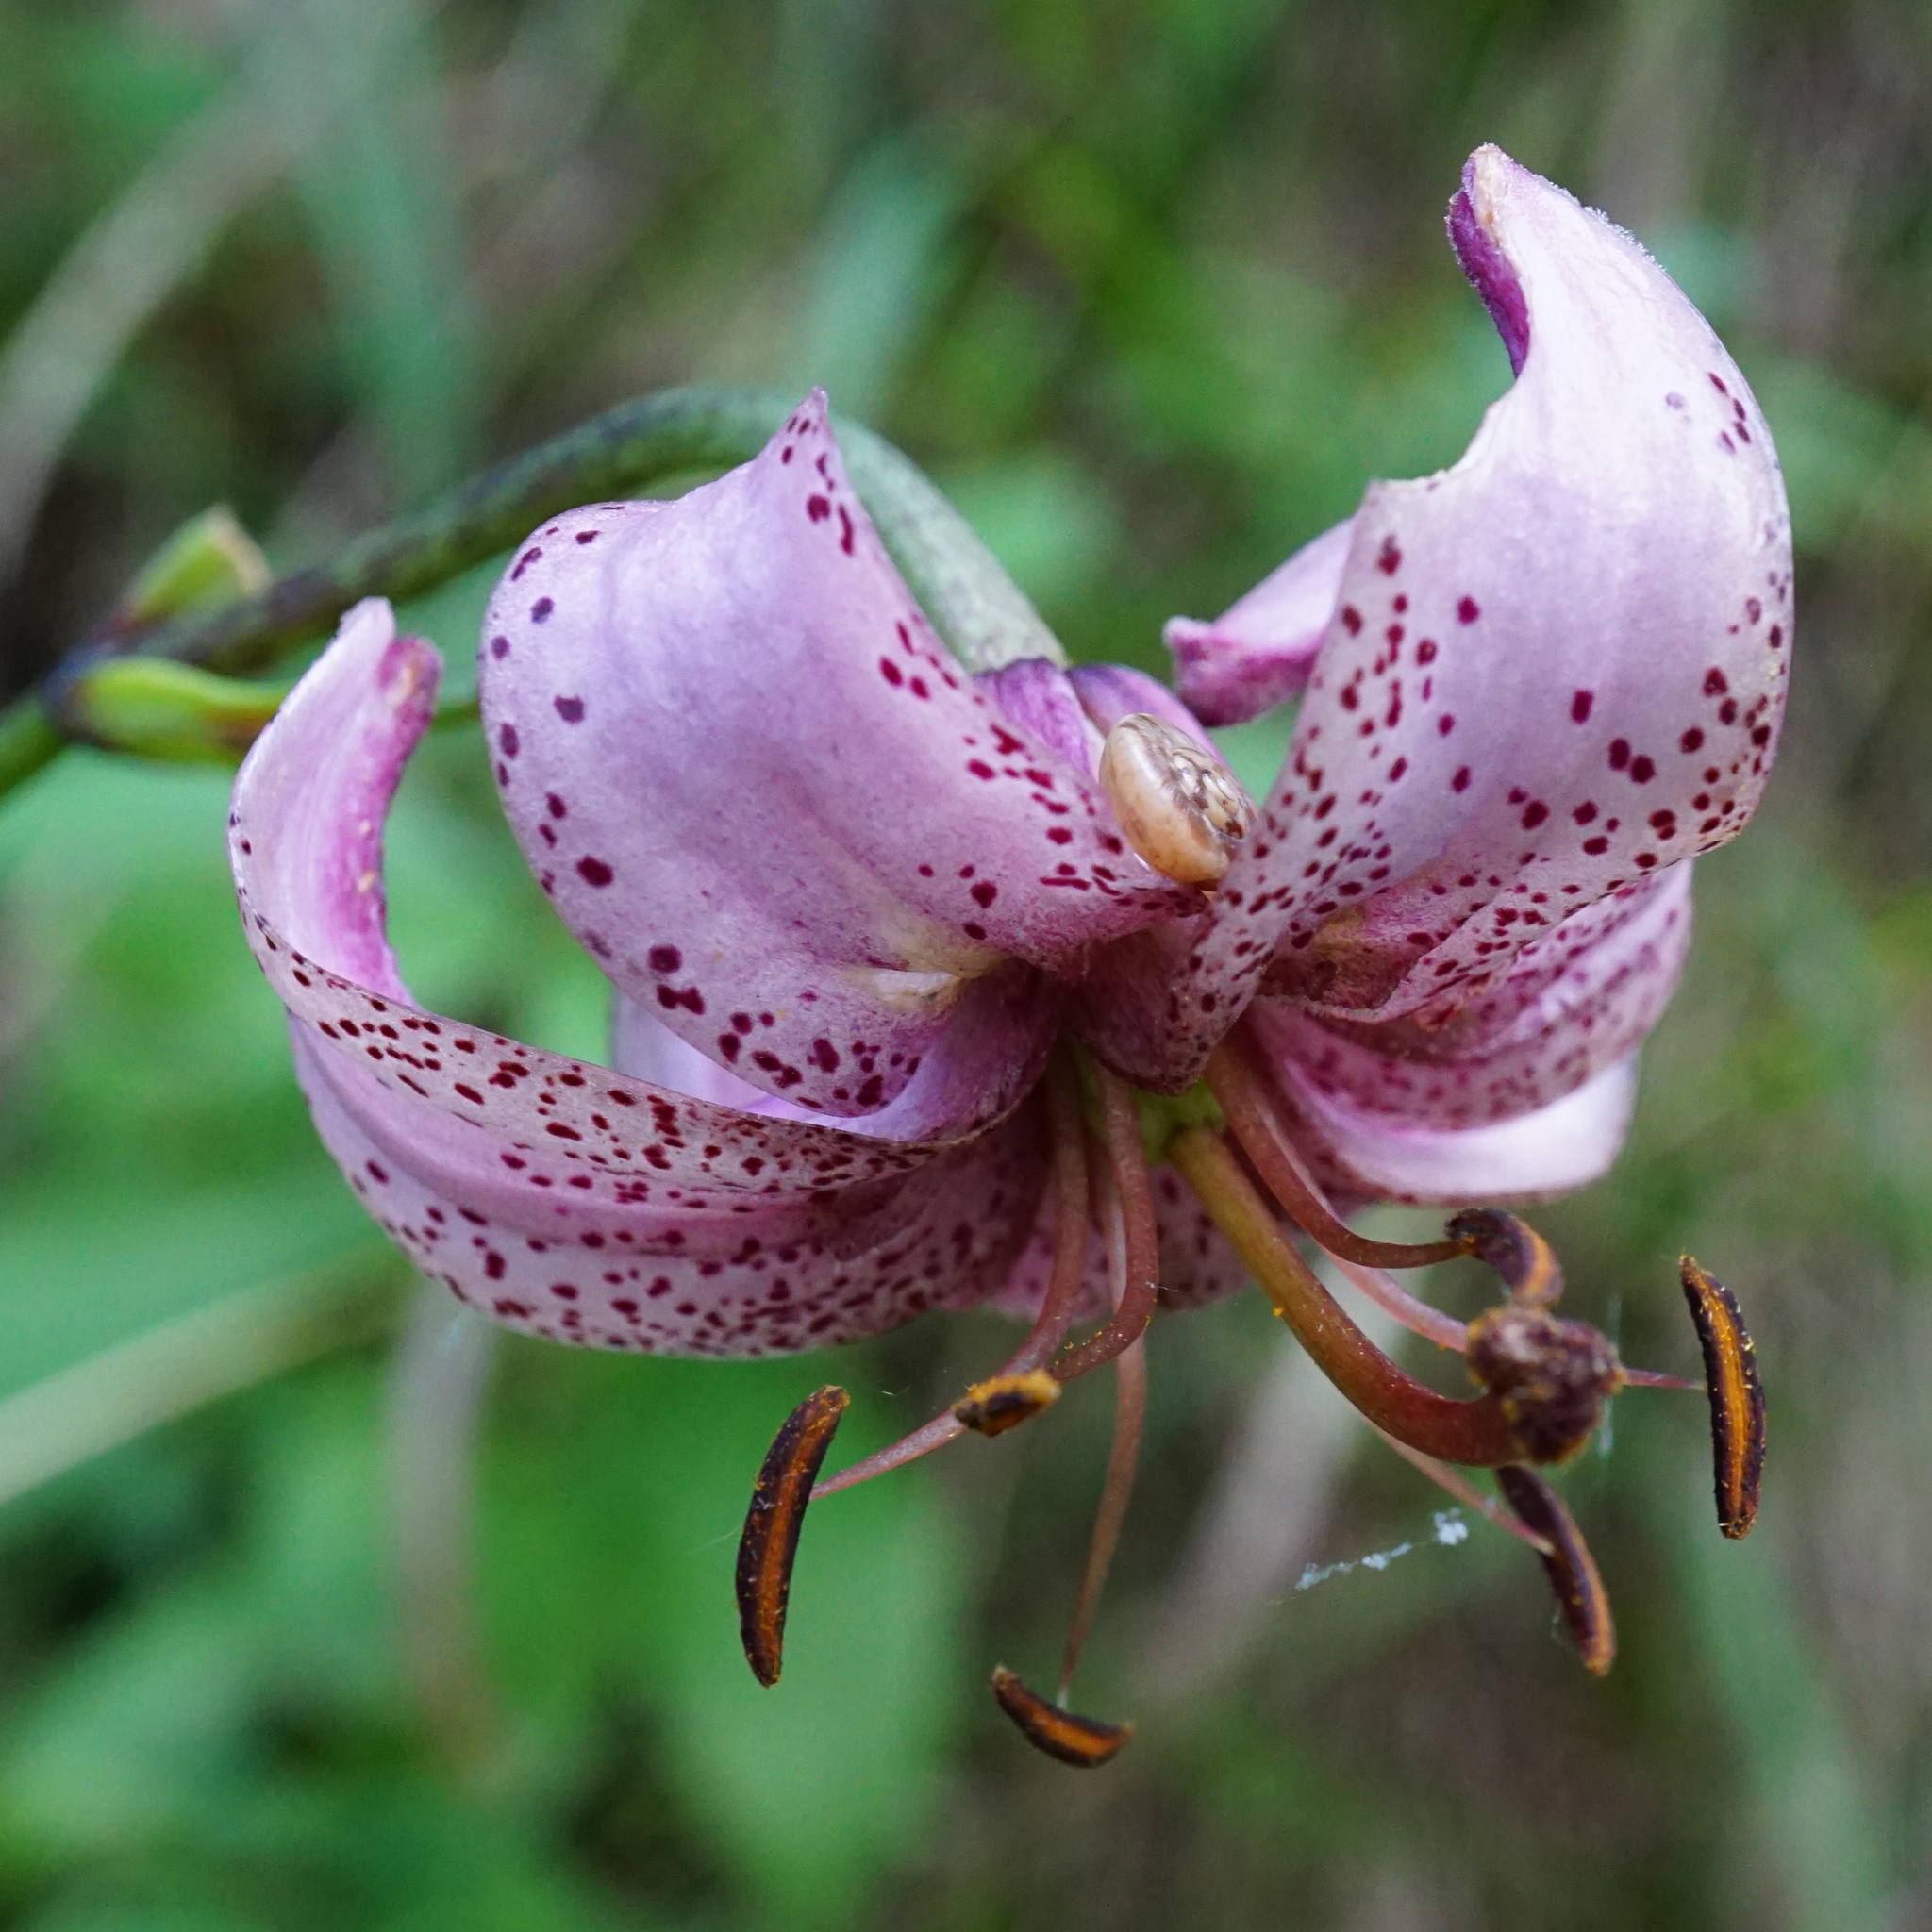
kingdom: Plantae
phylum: Tracheophyta
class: Liliopsida
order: Liliales
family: Liliaceae
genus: Lilium
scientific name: Lilium martagon
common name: Martagon lily
